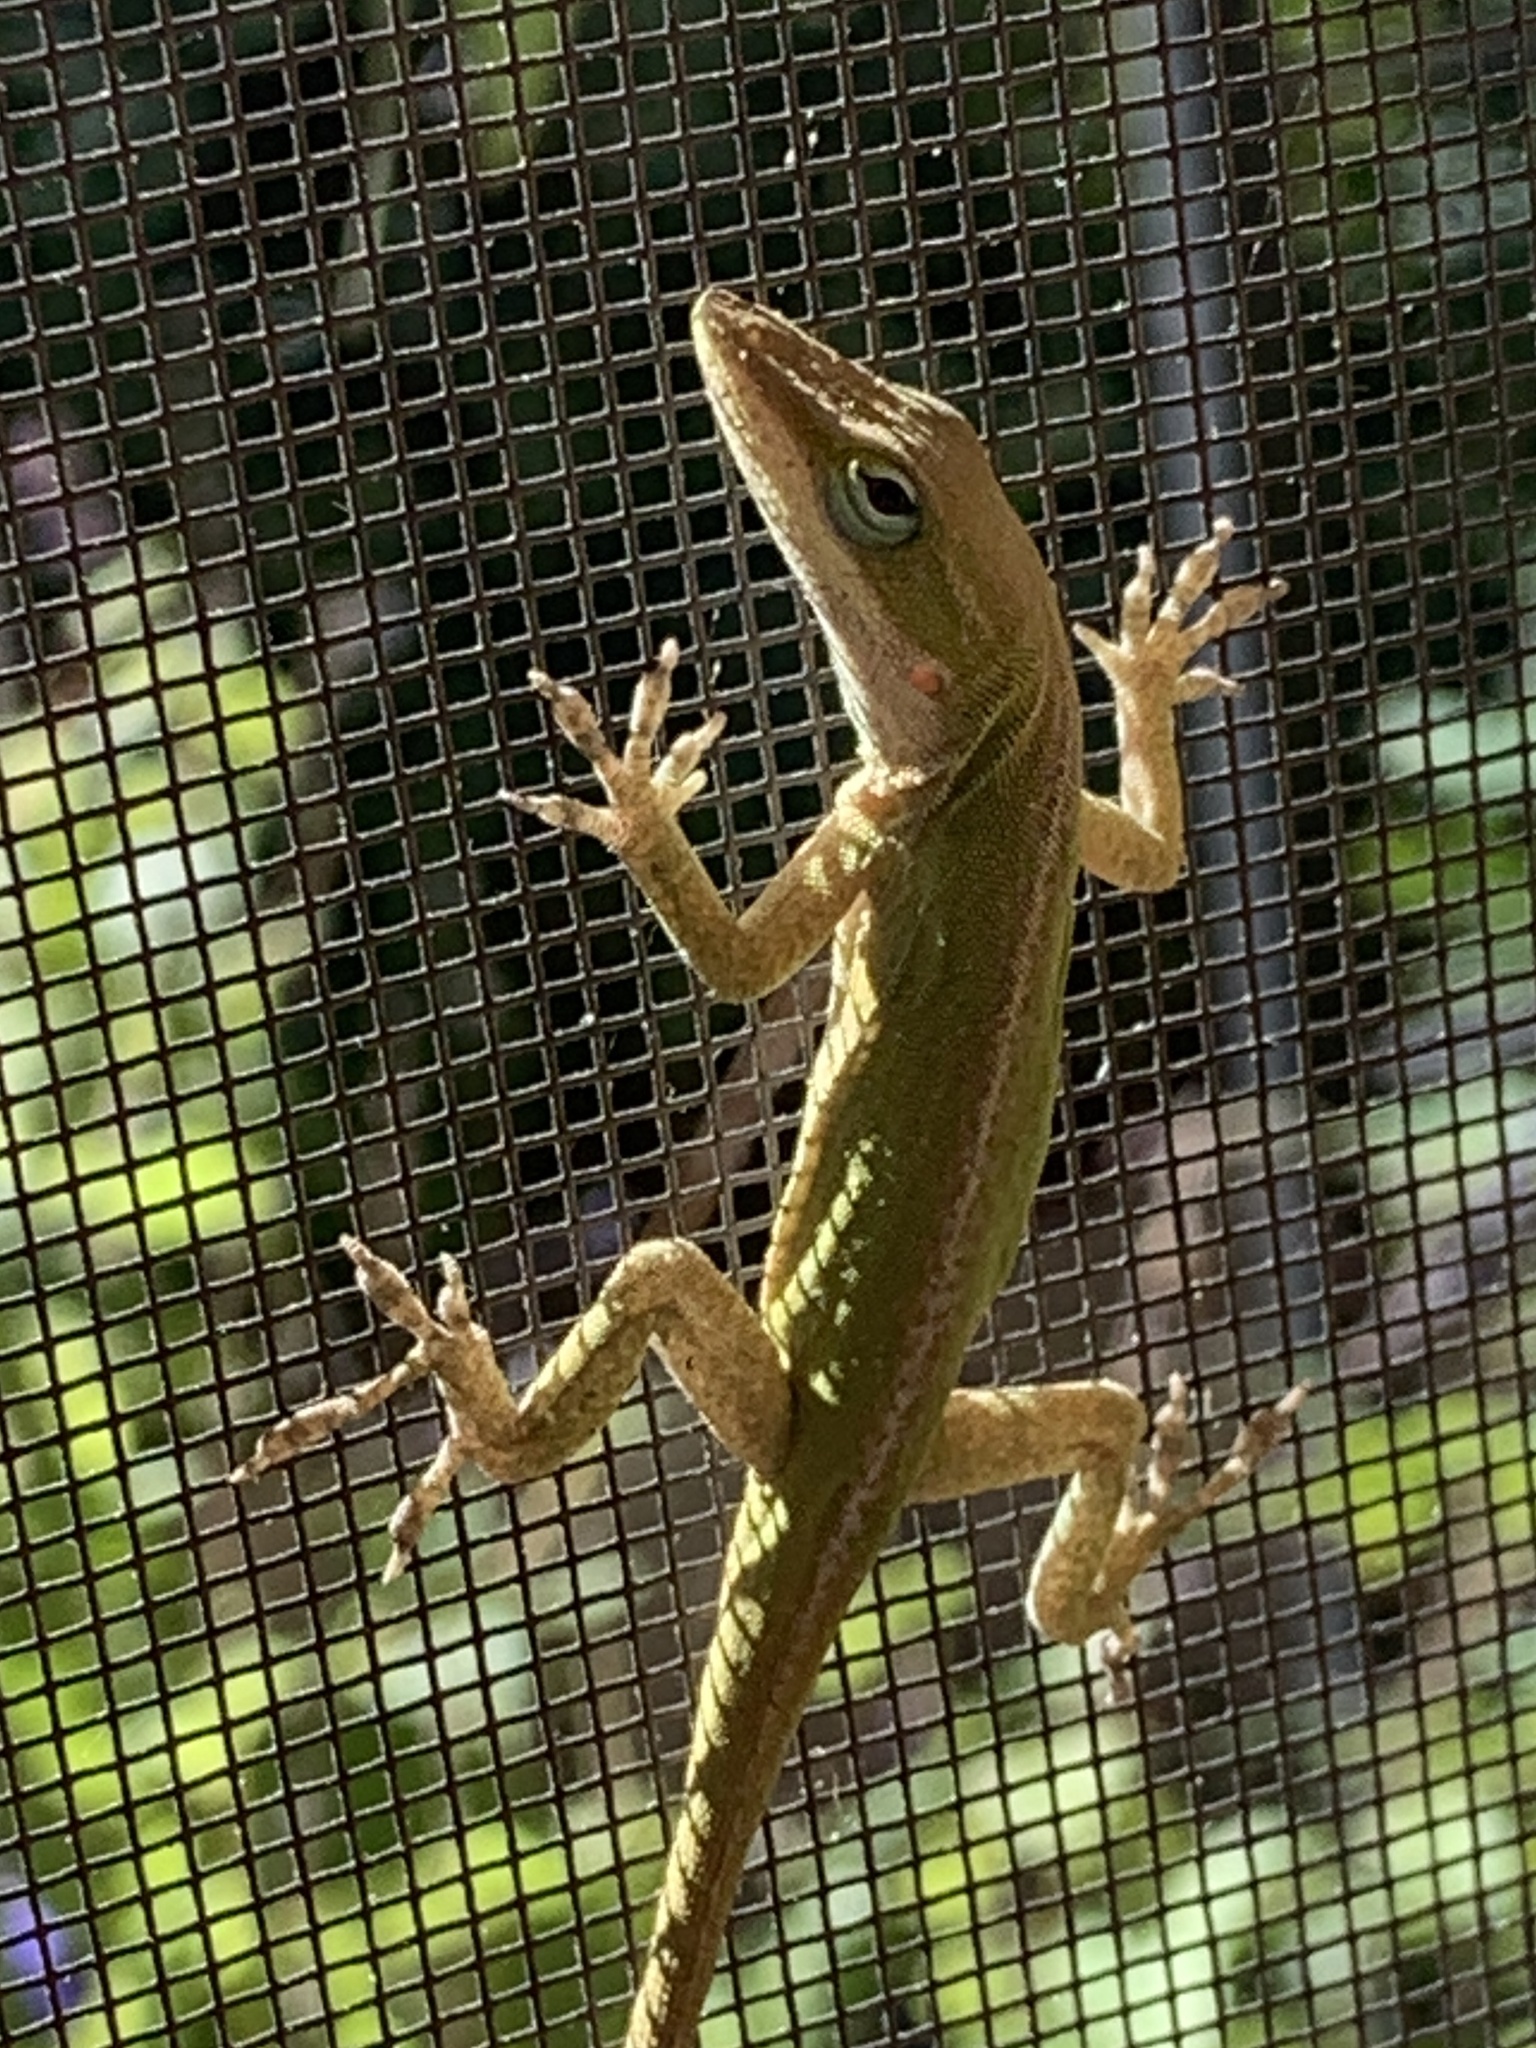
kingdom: Animalia
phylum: Chordata
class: Squamata
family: Dactyloidae
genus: Anolis
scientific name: Anolis carolinensis
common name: Green anole
